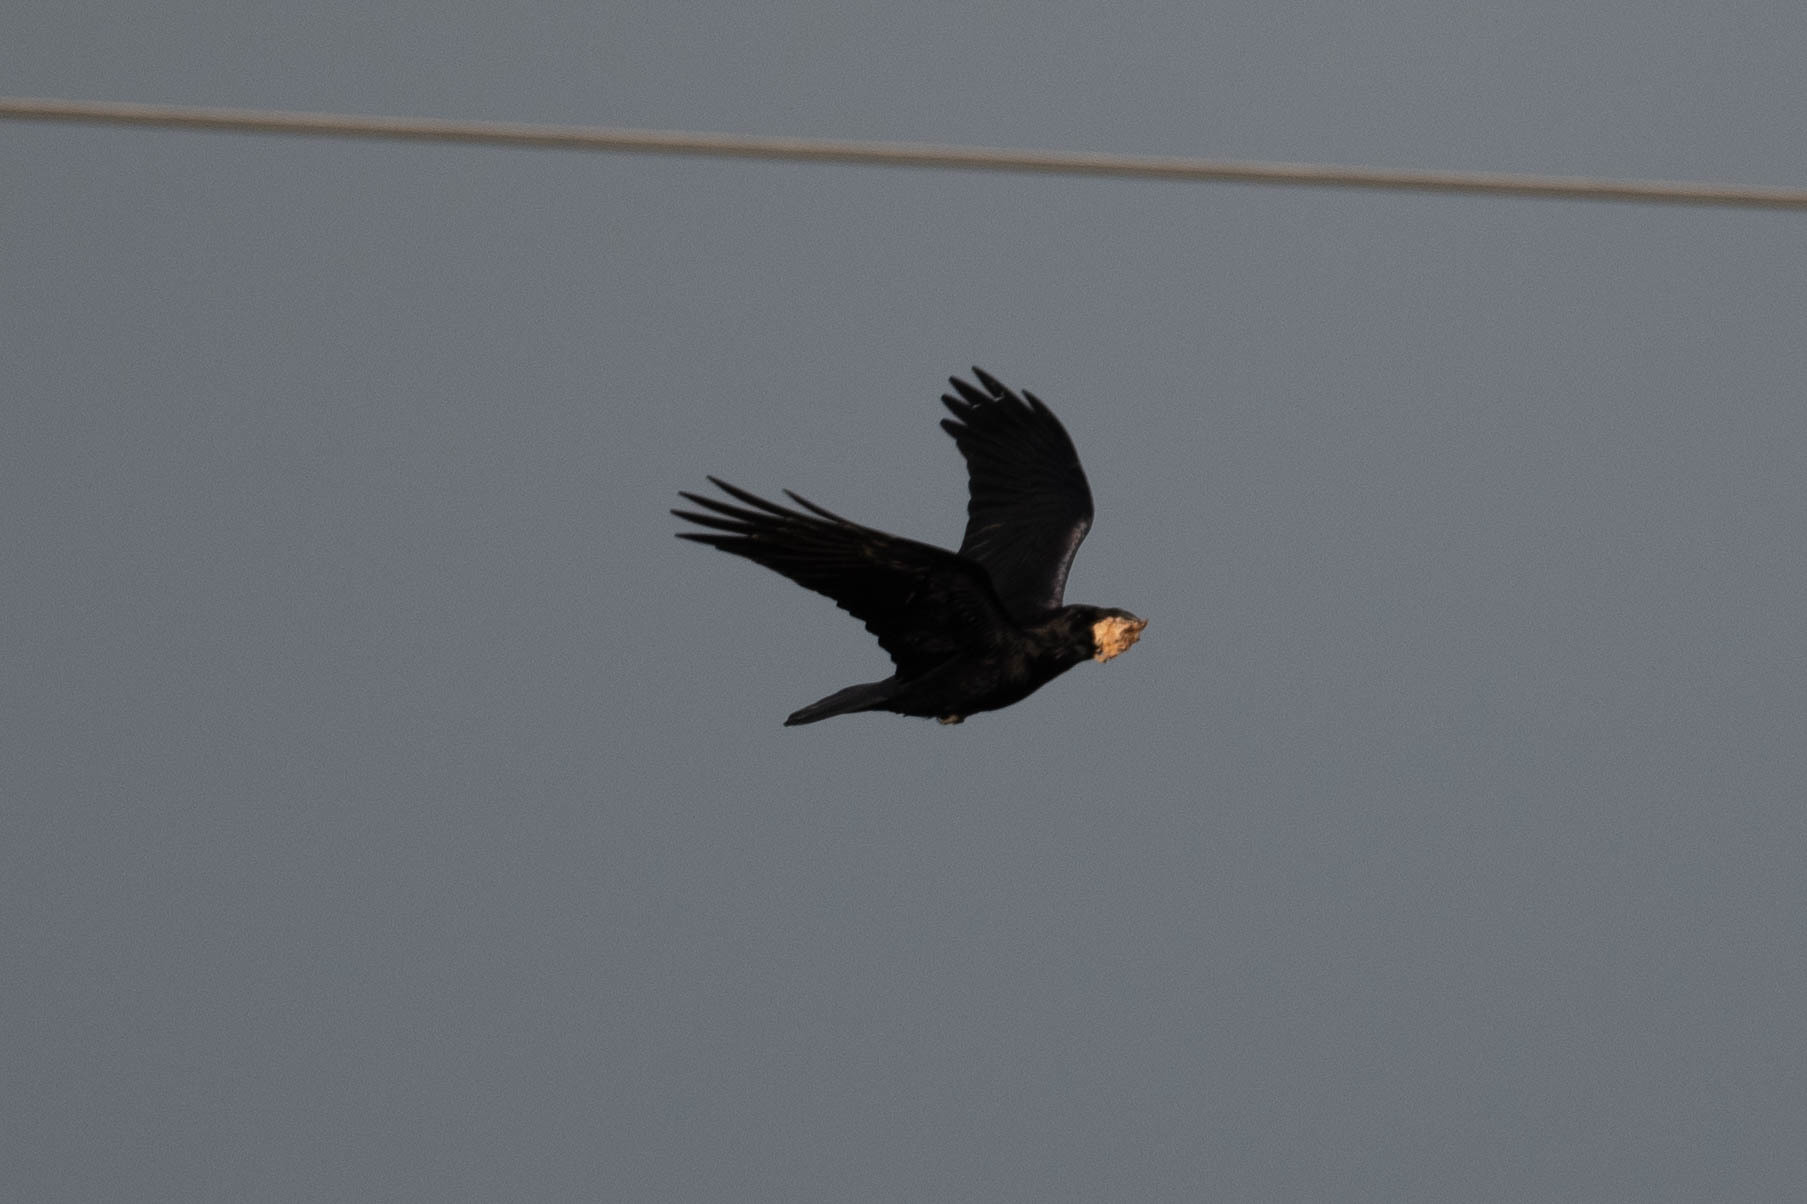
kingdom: Animalia
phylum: Chordata
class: Aves
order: Passeriformes
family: Corvidae
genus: Corvus
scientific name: Corvus corax
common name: Common raven
